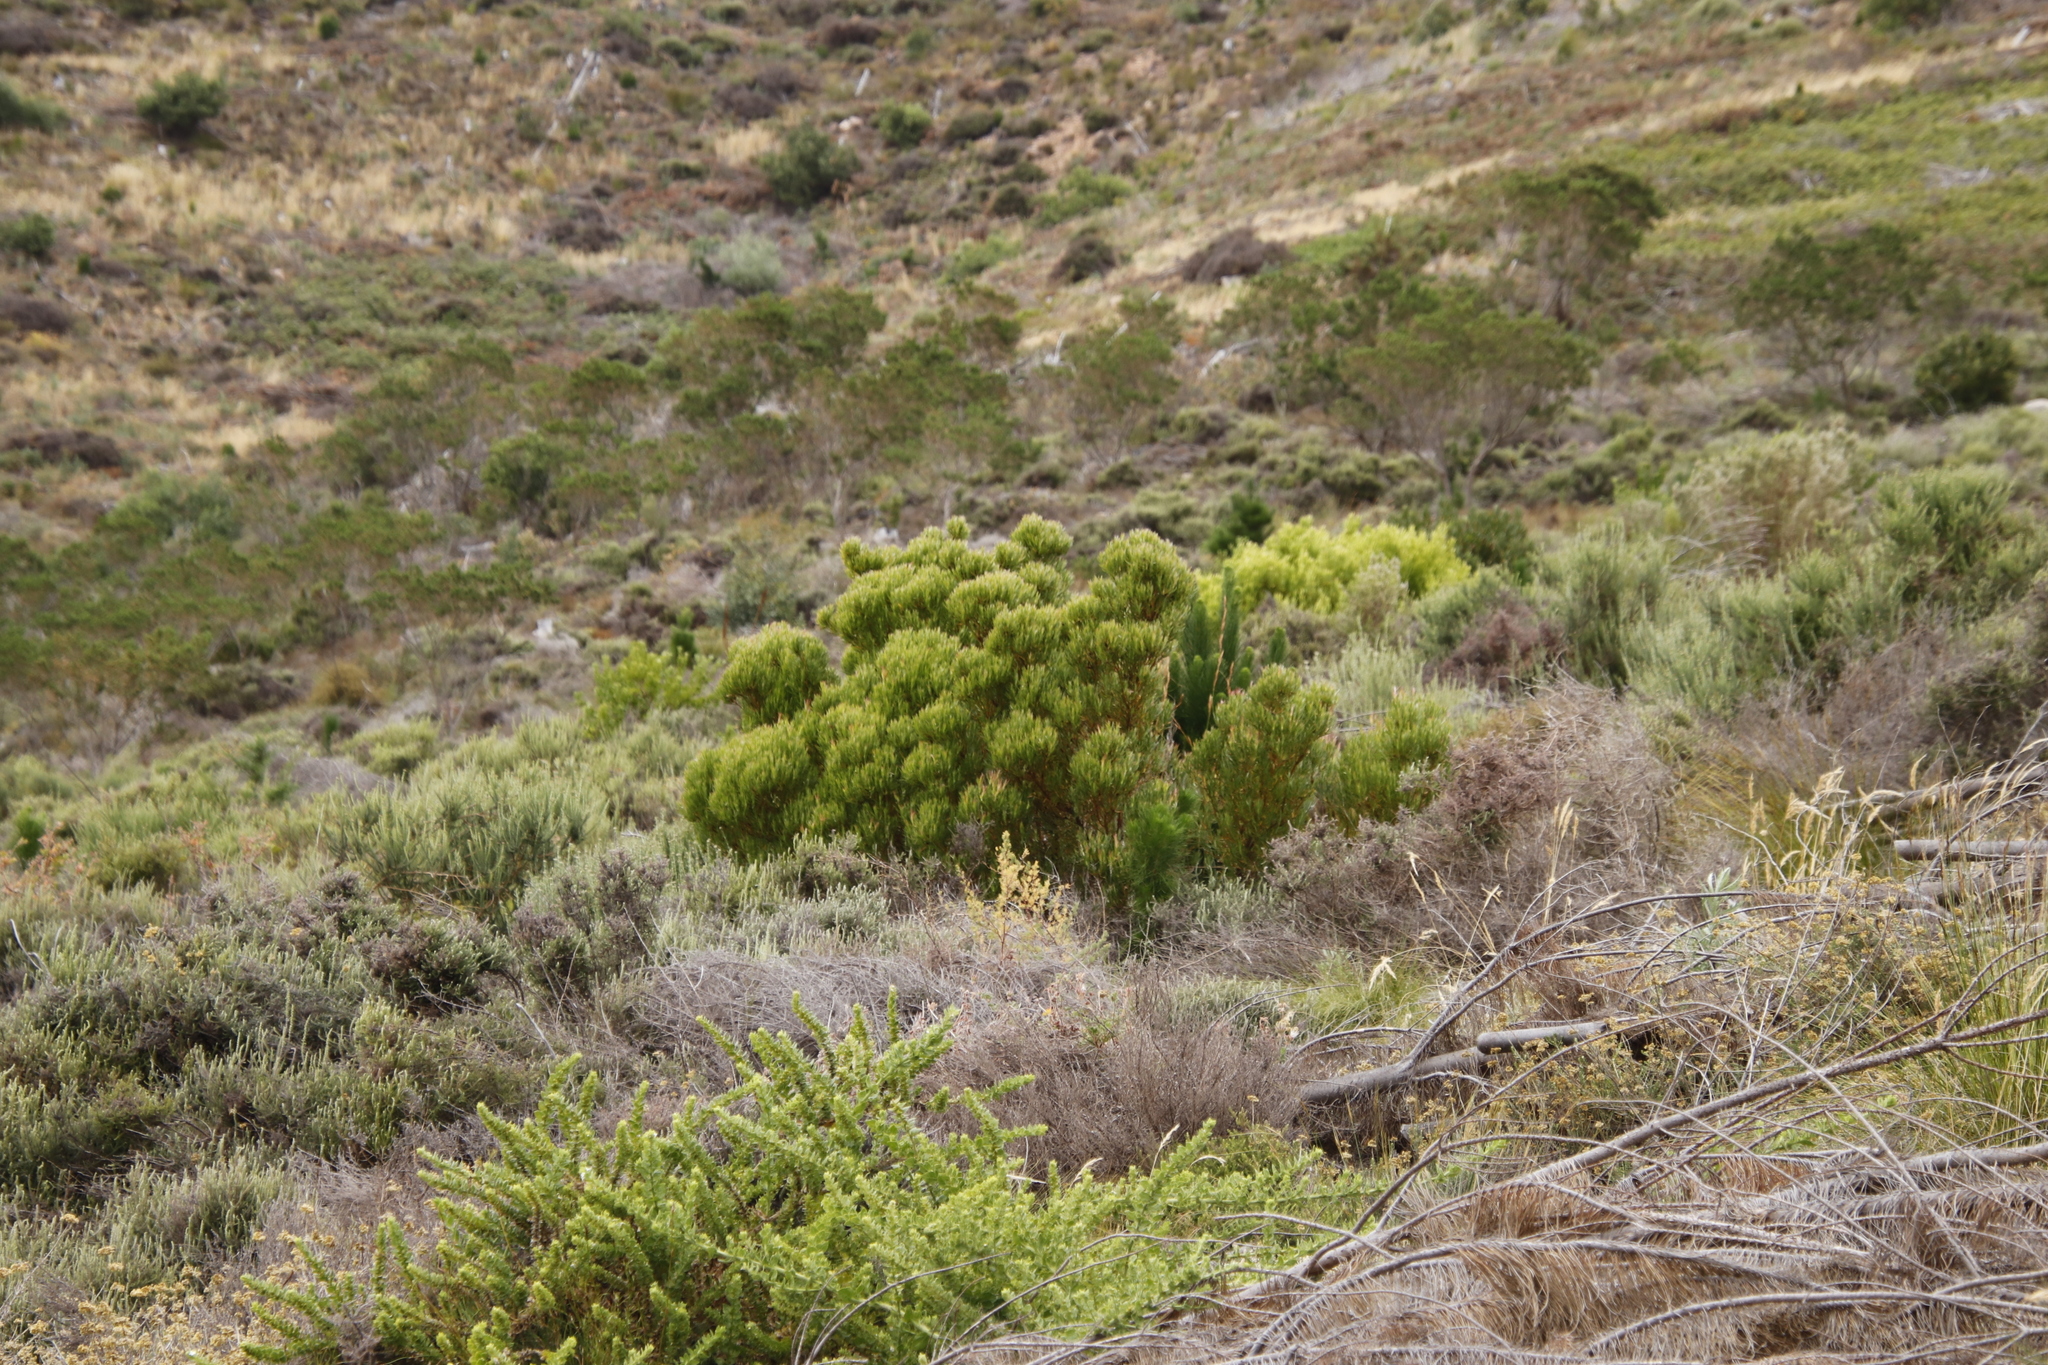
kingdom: Plantae
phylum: Tracheophyta
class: Magnoliopsida
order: Proteales
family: Proteaceae
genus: Leucadendron
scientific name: Leucadendron xanthoconus
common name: Sickle-leaf conebush
